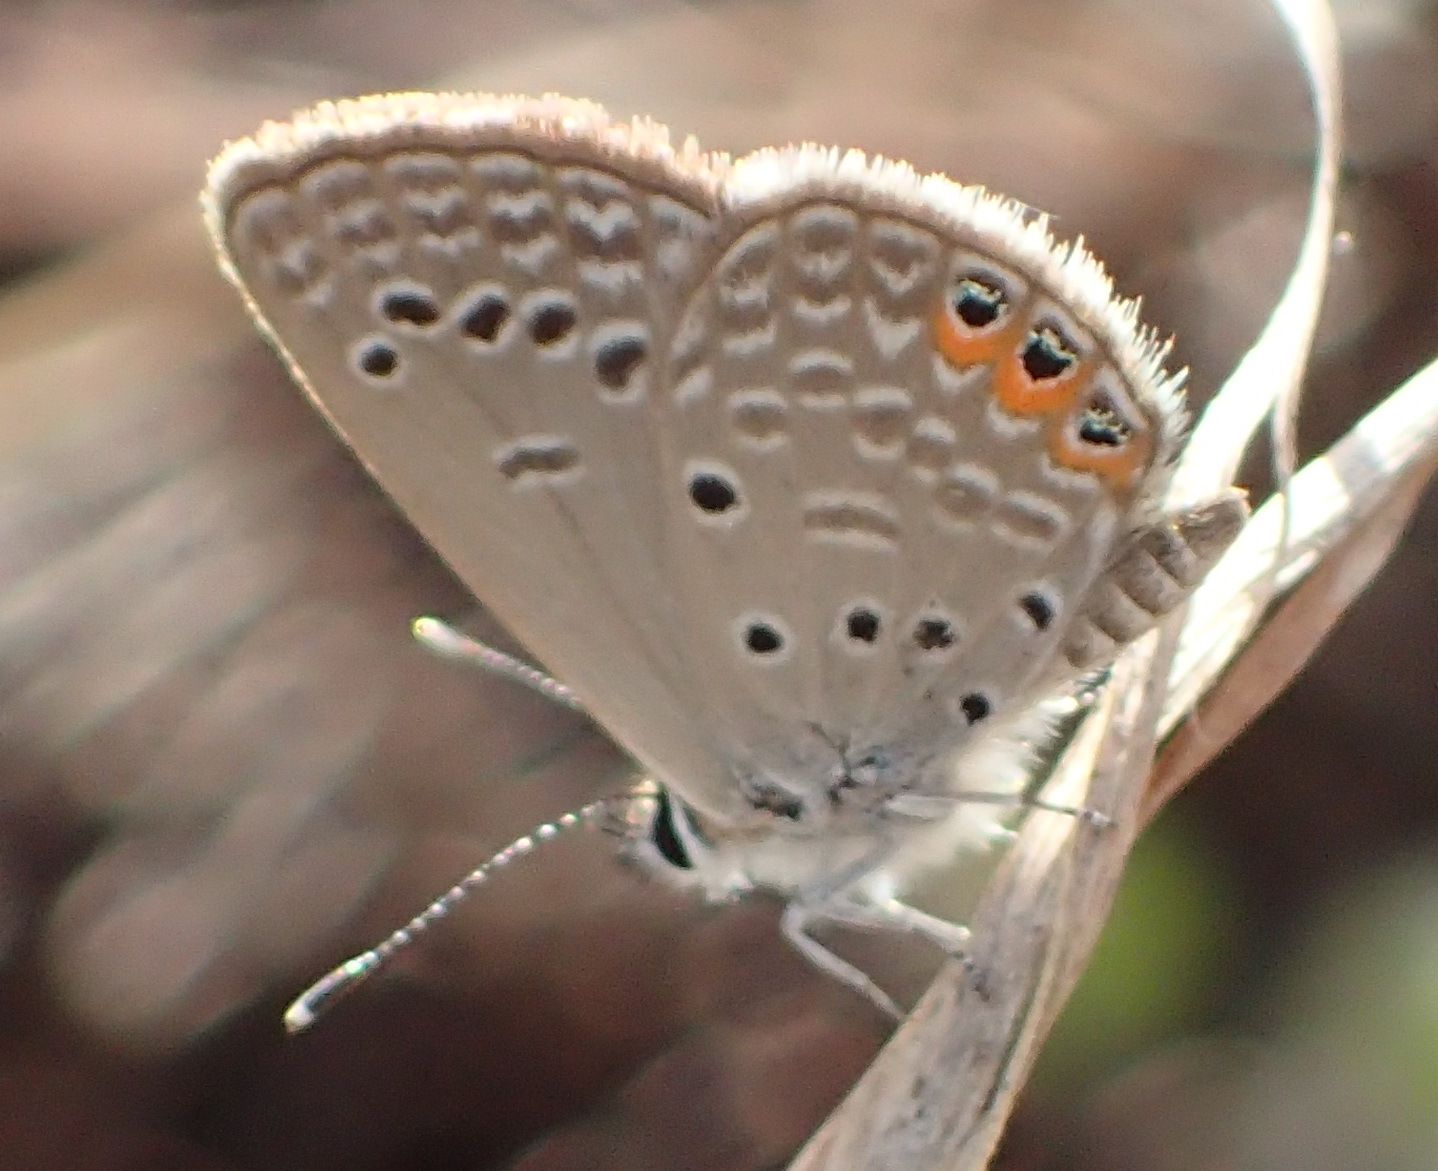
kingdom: Animalia
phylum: Arthropoda
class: Insecta
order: Lepidoptera
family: Lycaenidae
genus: Freyeria
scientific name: Freyeria trochylus
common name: Grass jewel
